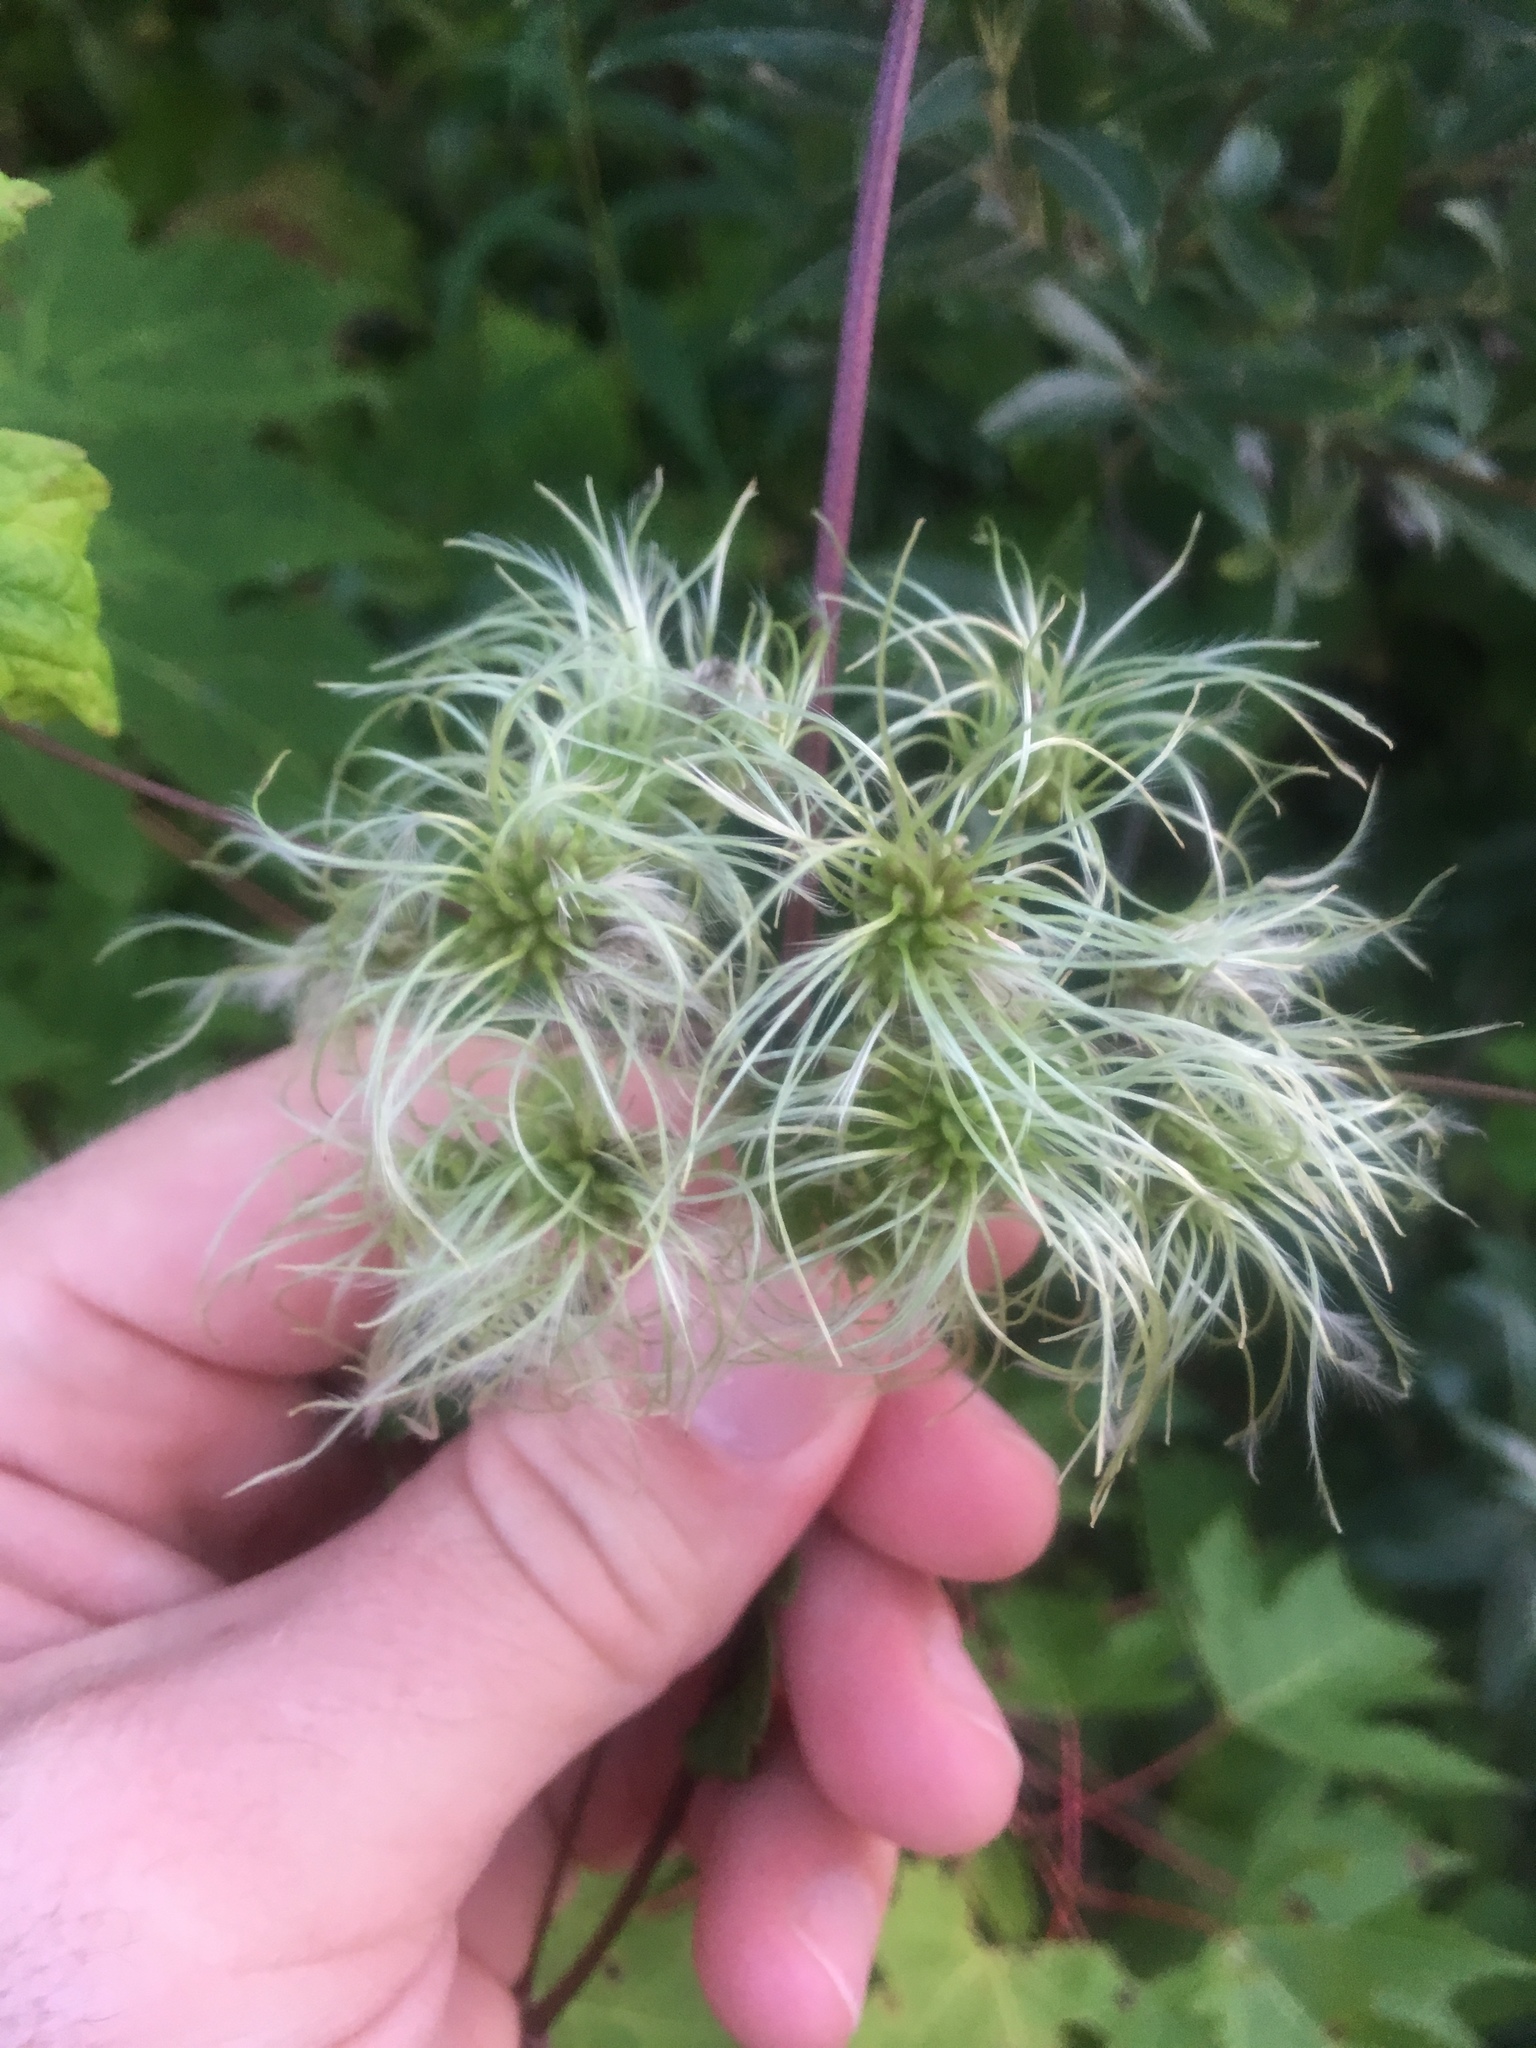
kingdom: Plantae
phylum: Tracheophyta
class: Magnoliopsida
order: Ranunculales
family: Ranunculaceae
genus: Clematis
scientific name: Clematis virginiana
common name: Virgin's-bower
